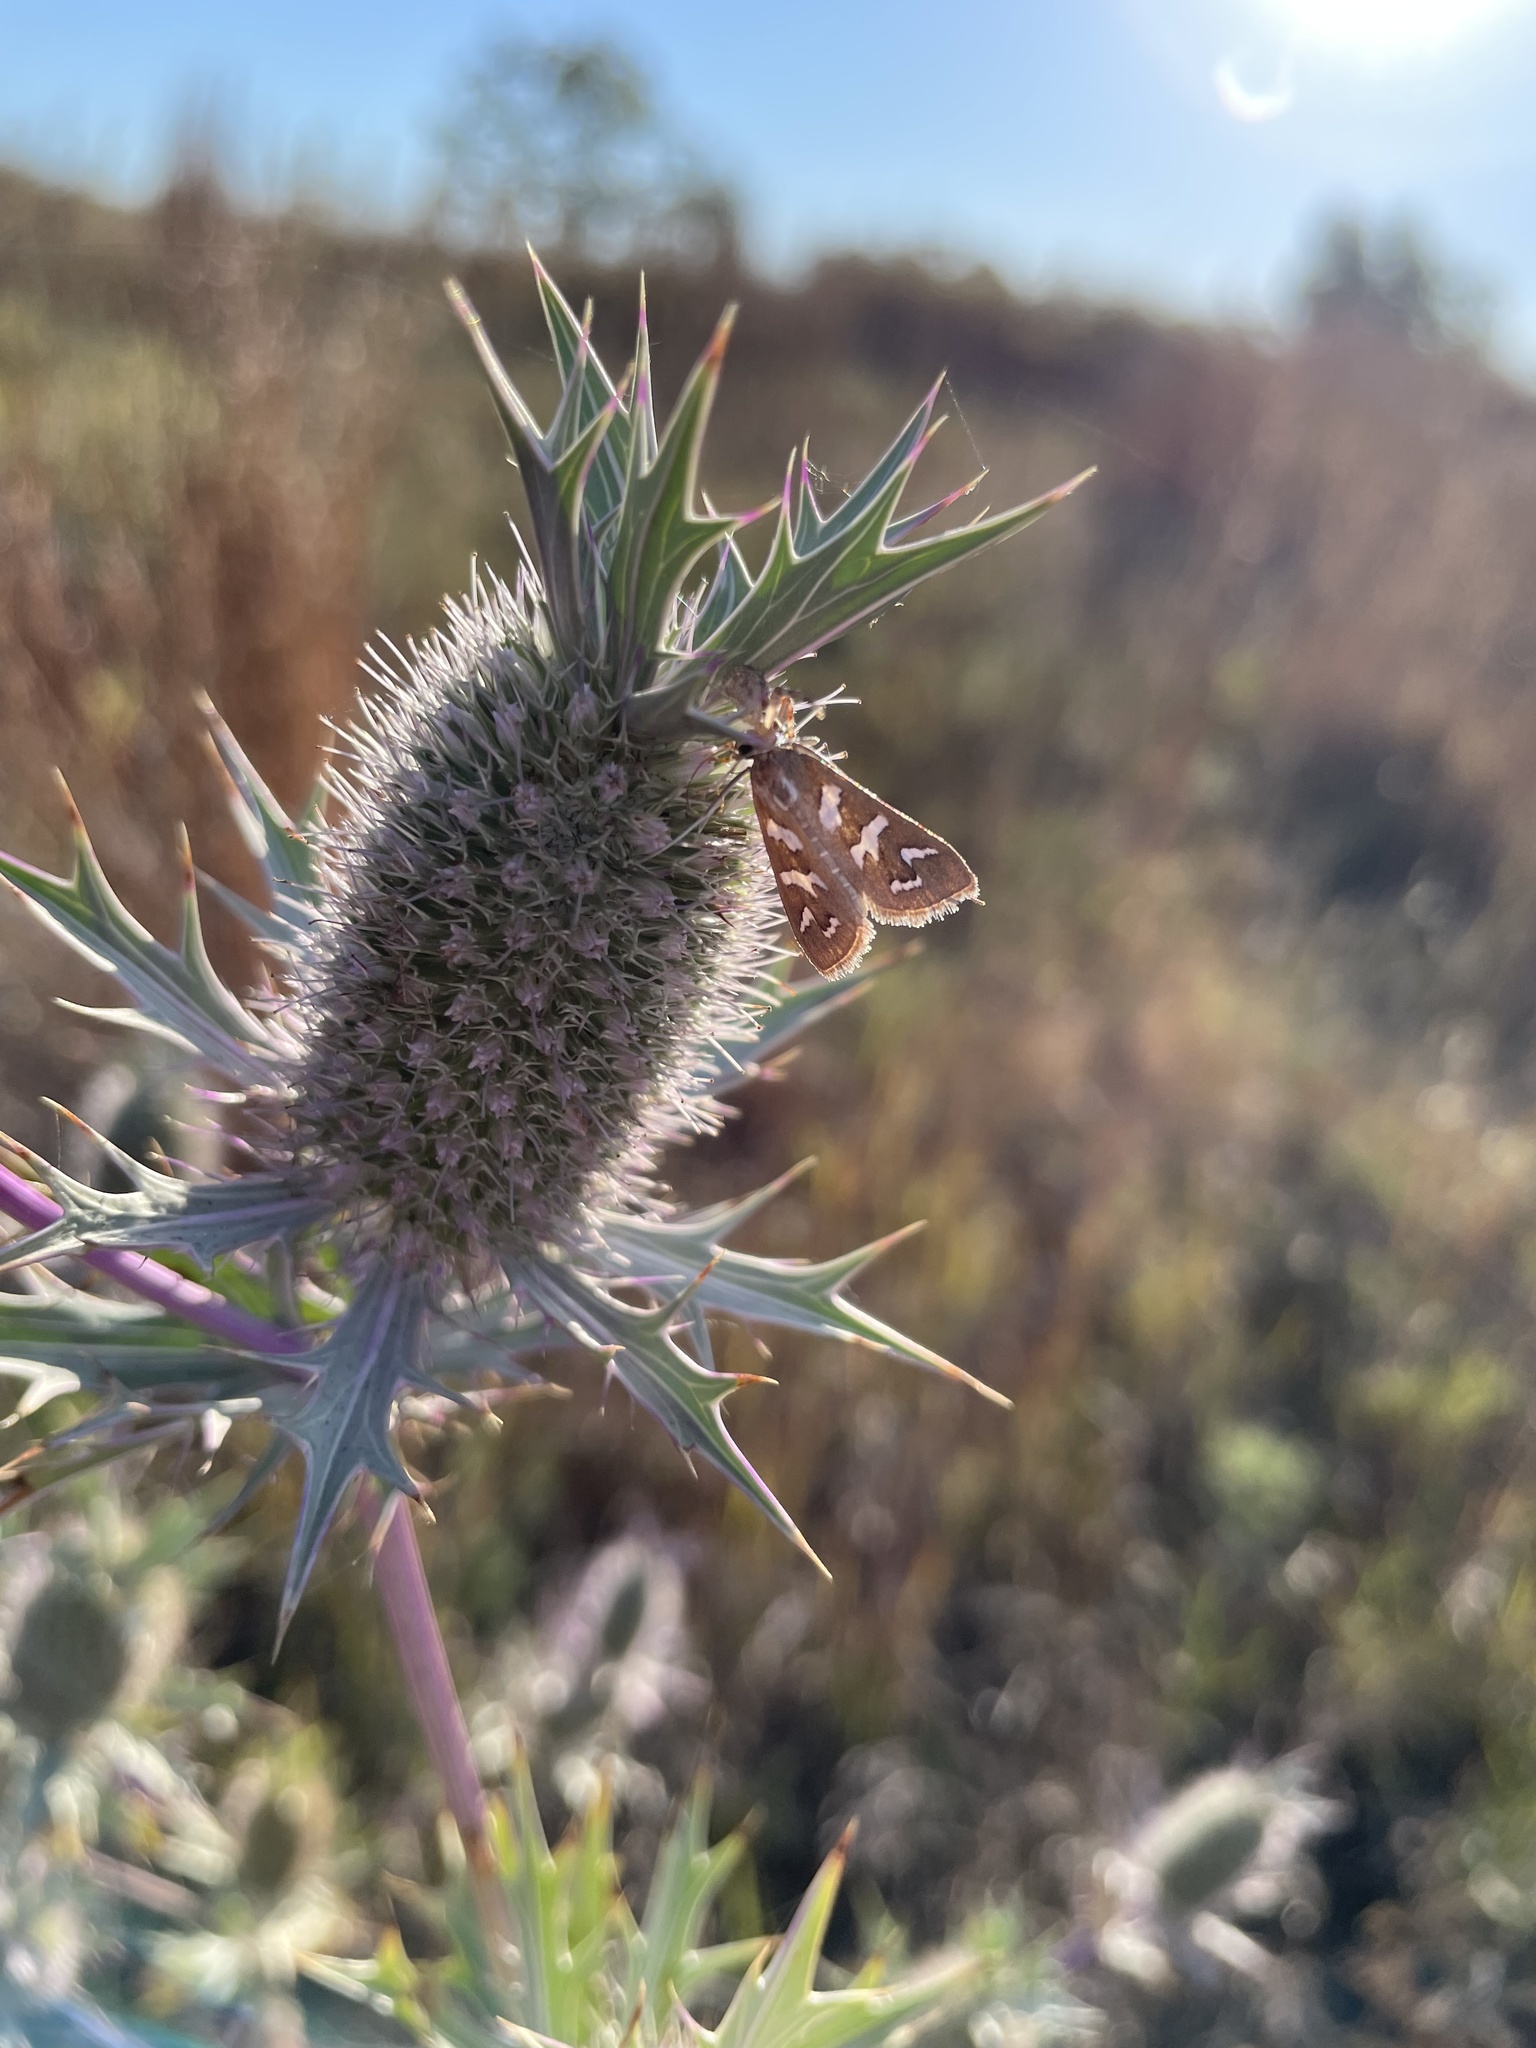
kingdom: Animalia
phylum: Arthropoda
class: Insecta
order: Lepidoptera
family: Crambidae
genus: Diastictis
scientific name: Diastictis fracturalis
